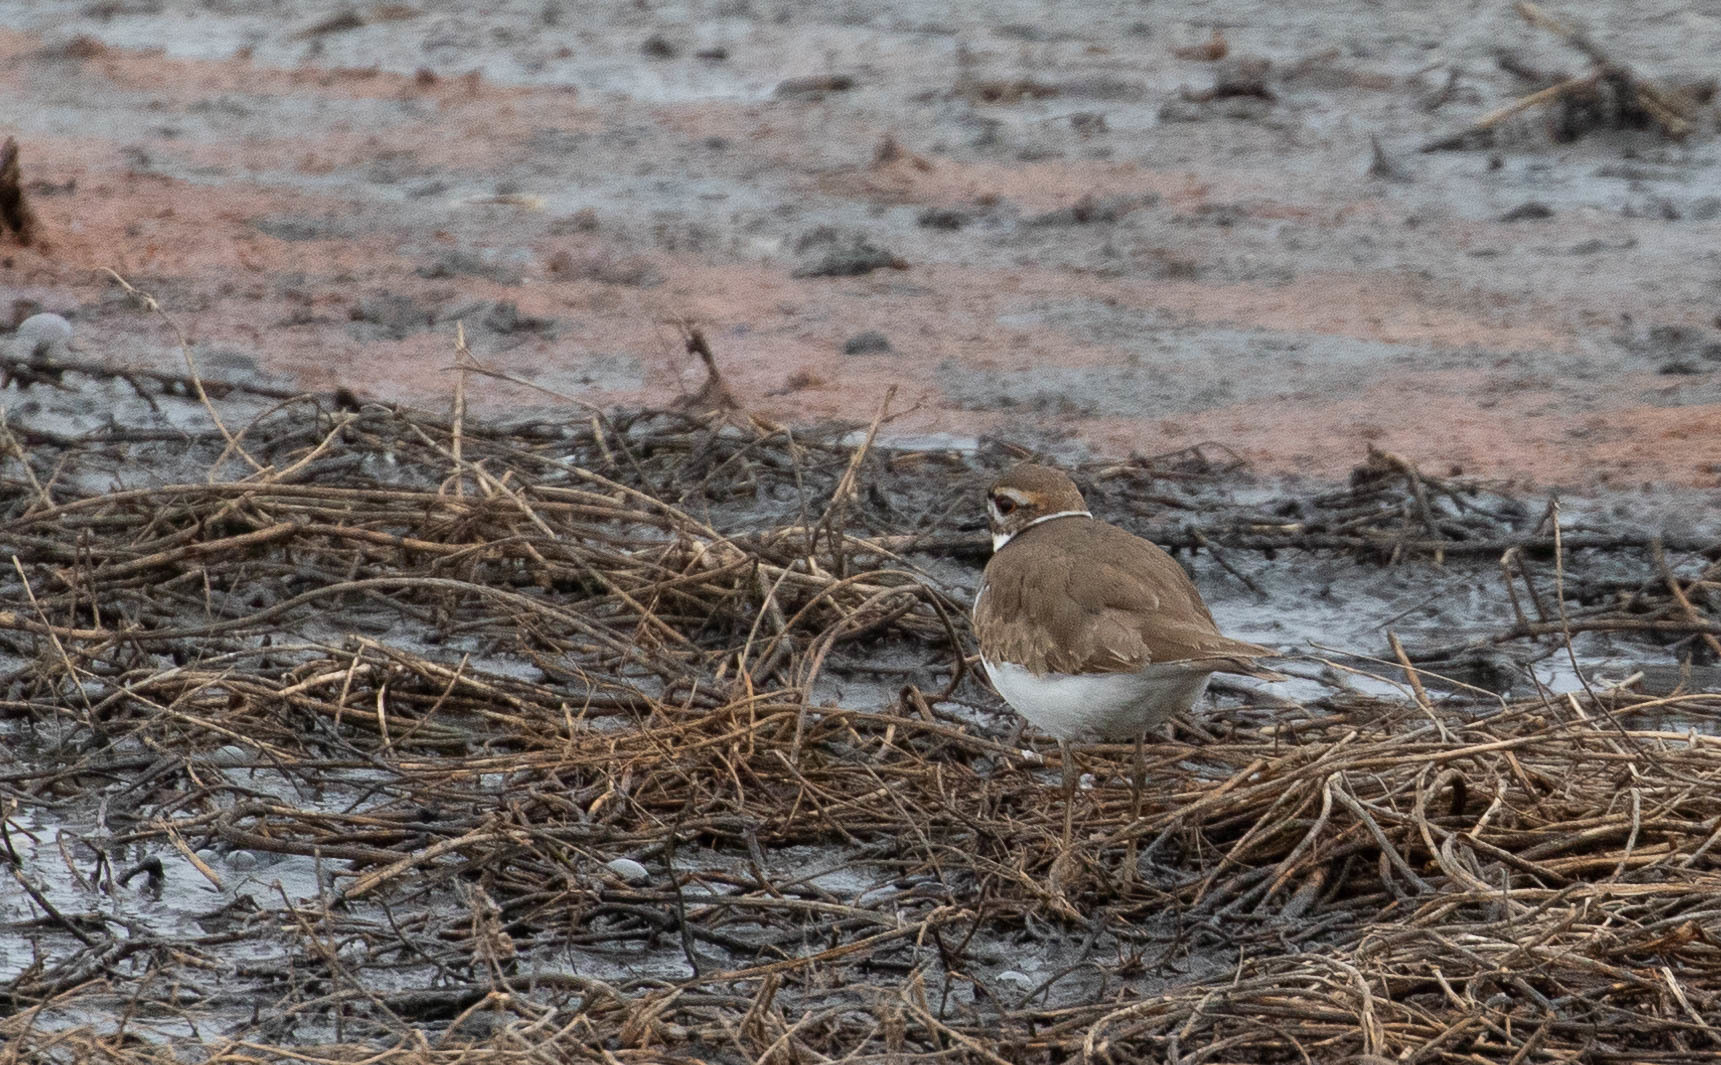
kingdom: Animalia
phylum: Chordata
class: Aves
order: Charadriiformes
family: Charadriidae
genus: Charadrius
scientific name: Charadrius vociferus
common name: Killdeer
